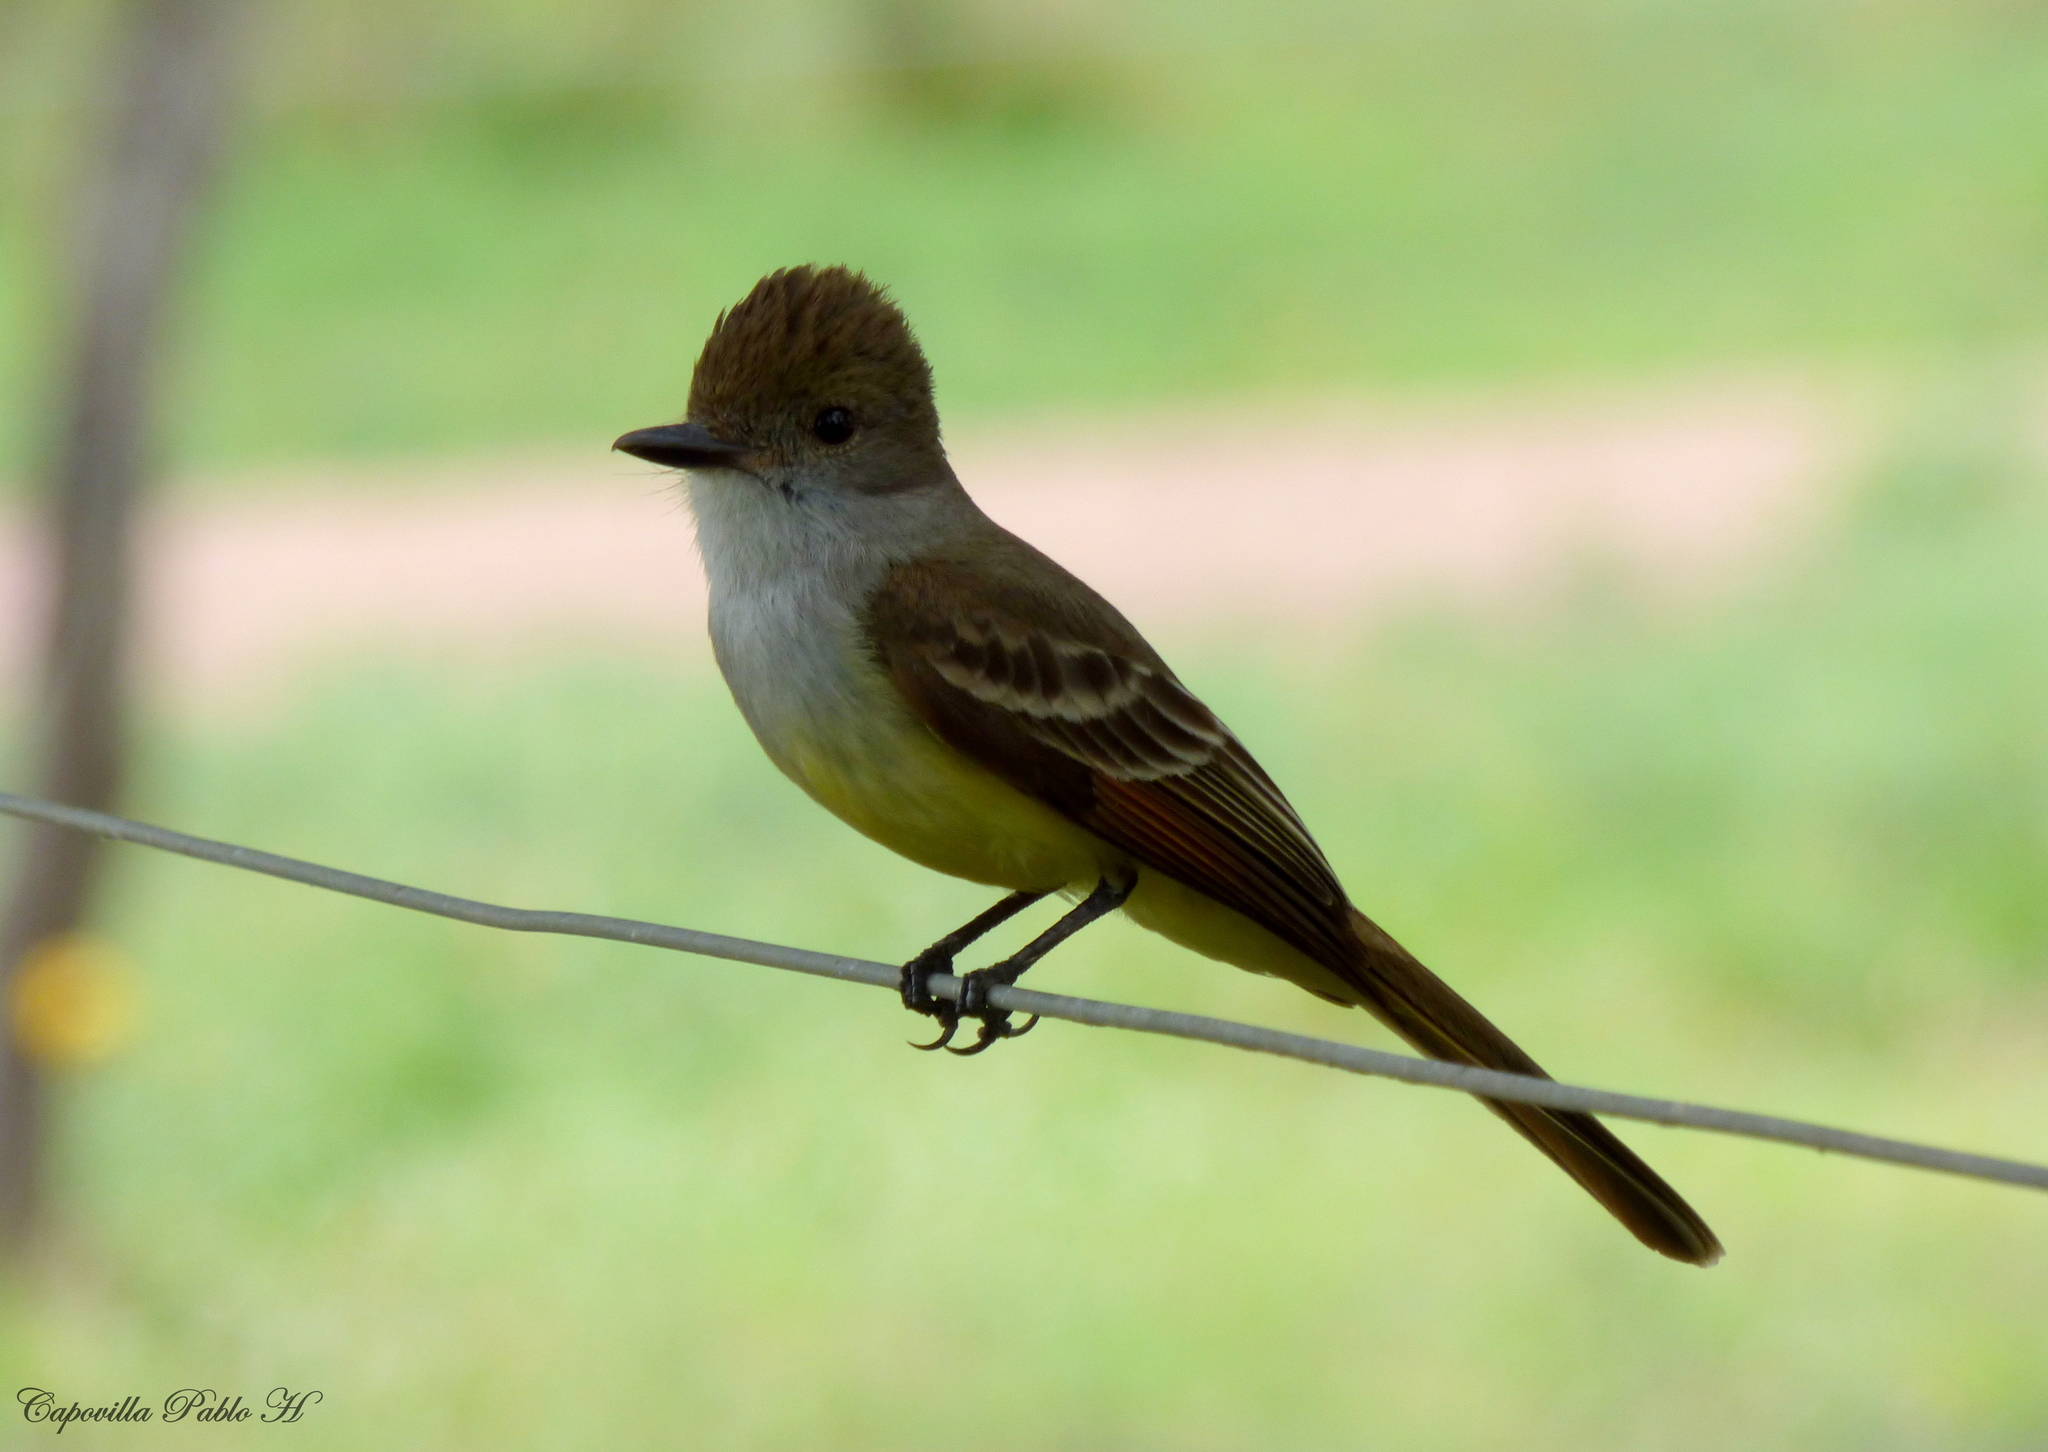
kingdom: Animalia
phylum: Chordata
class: Aves
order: Passeriformes
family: Tyrannidae
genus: Myiarchus
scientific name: Myiarchus tyrannulus
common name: Brown-crested flycatcher
